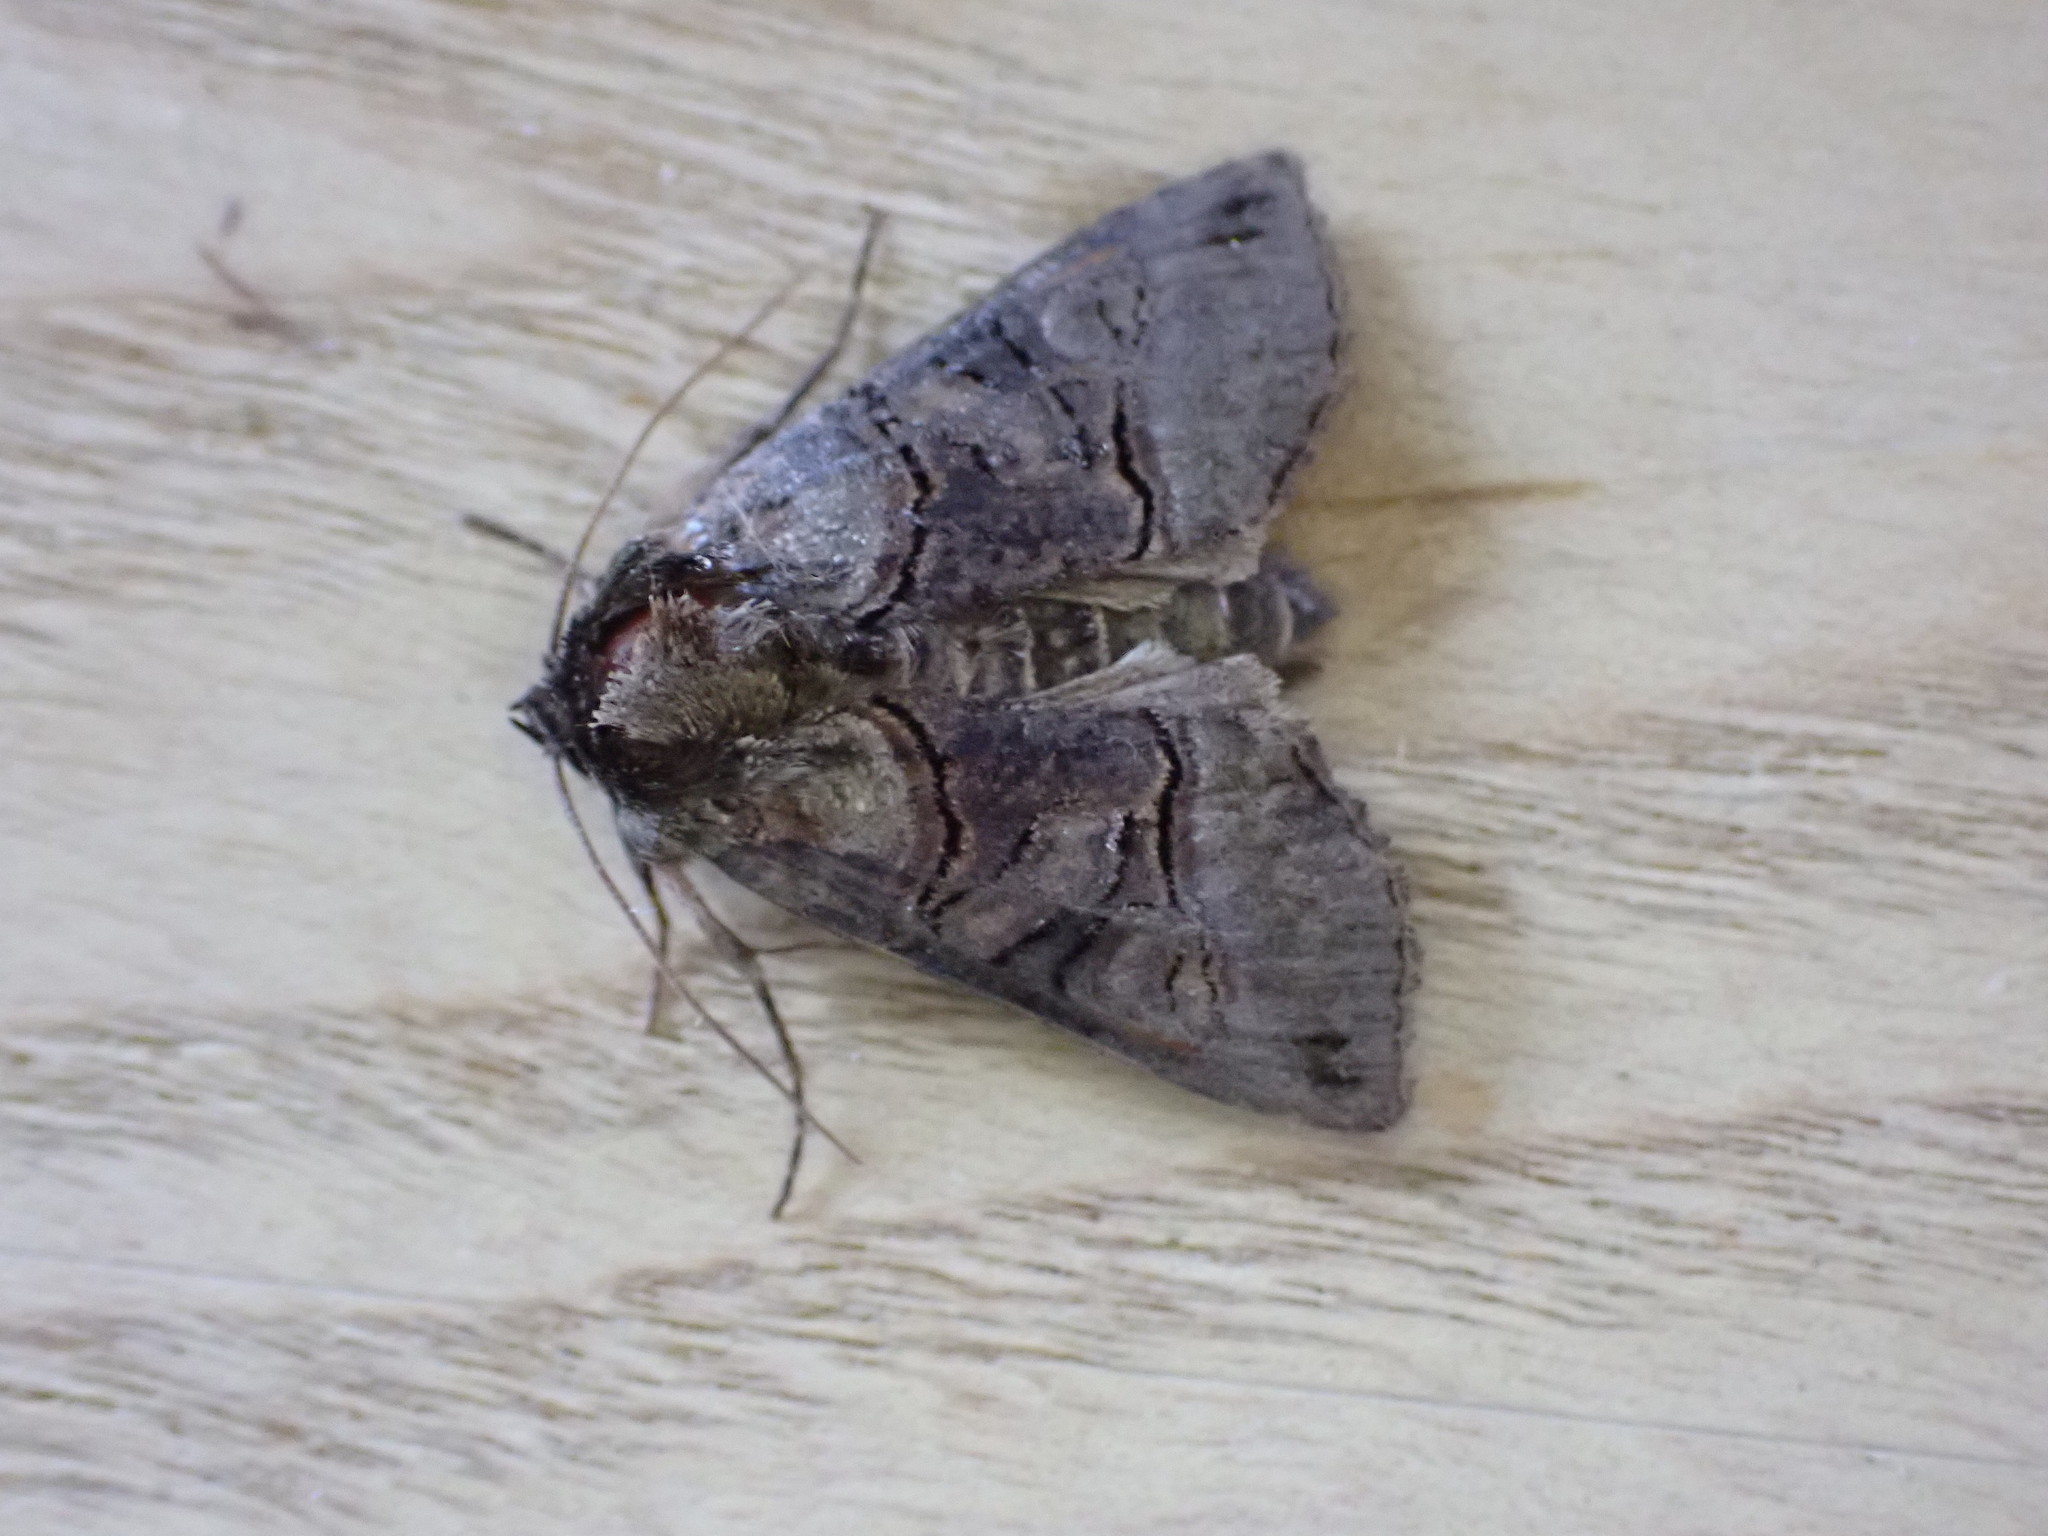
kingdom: Animalia
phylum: Arthropoda
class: Insecta
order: Lepidoptera
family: Noctuidae
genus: Abrostola
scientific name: Abrostola tripartita
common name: Spectacle
